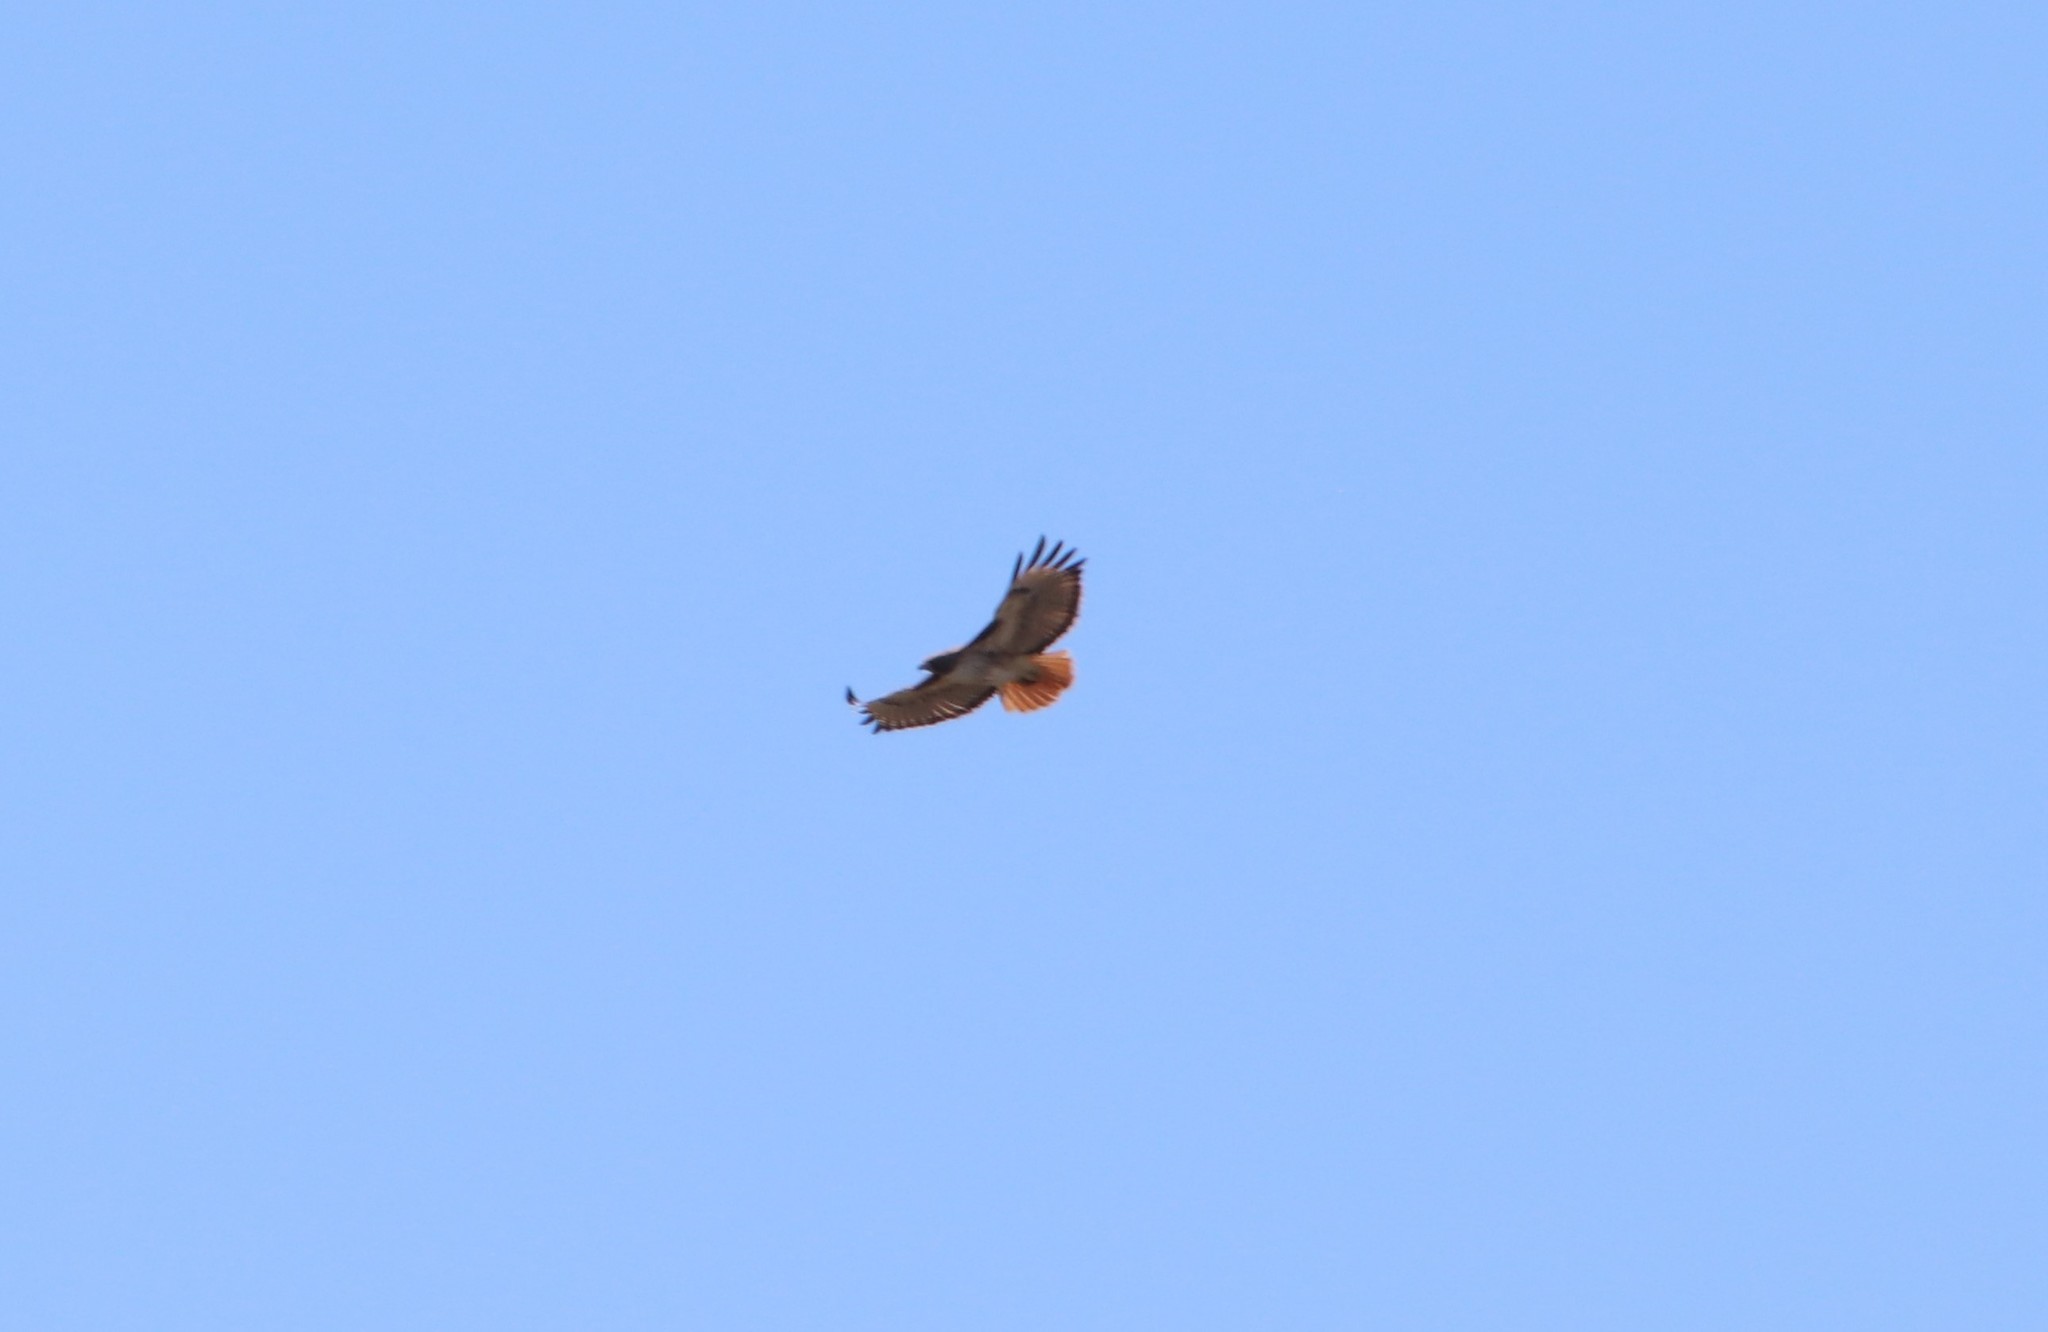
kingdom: Animalia
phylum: Chordata
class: Aves
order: Accipitriformes
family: Accipitridae
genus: Buteo
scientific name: Buteo jamaicensis
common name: Red-tailed hawk
